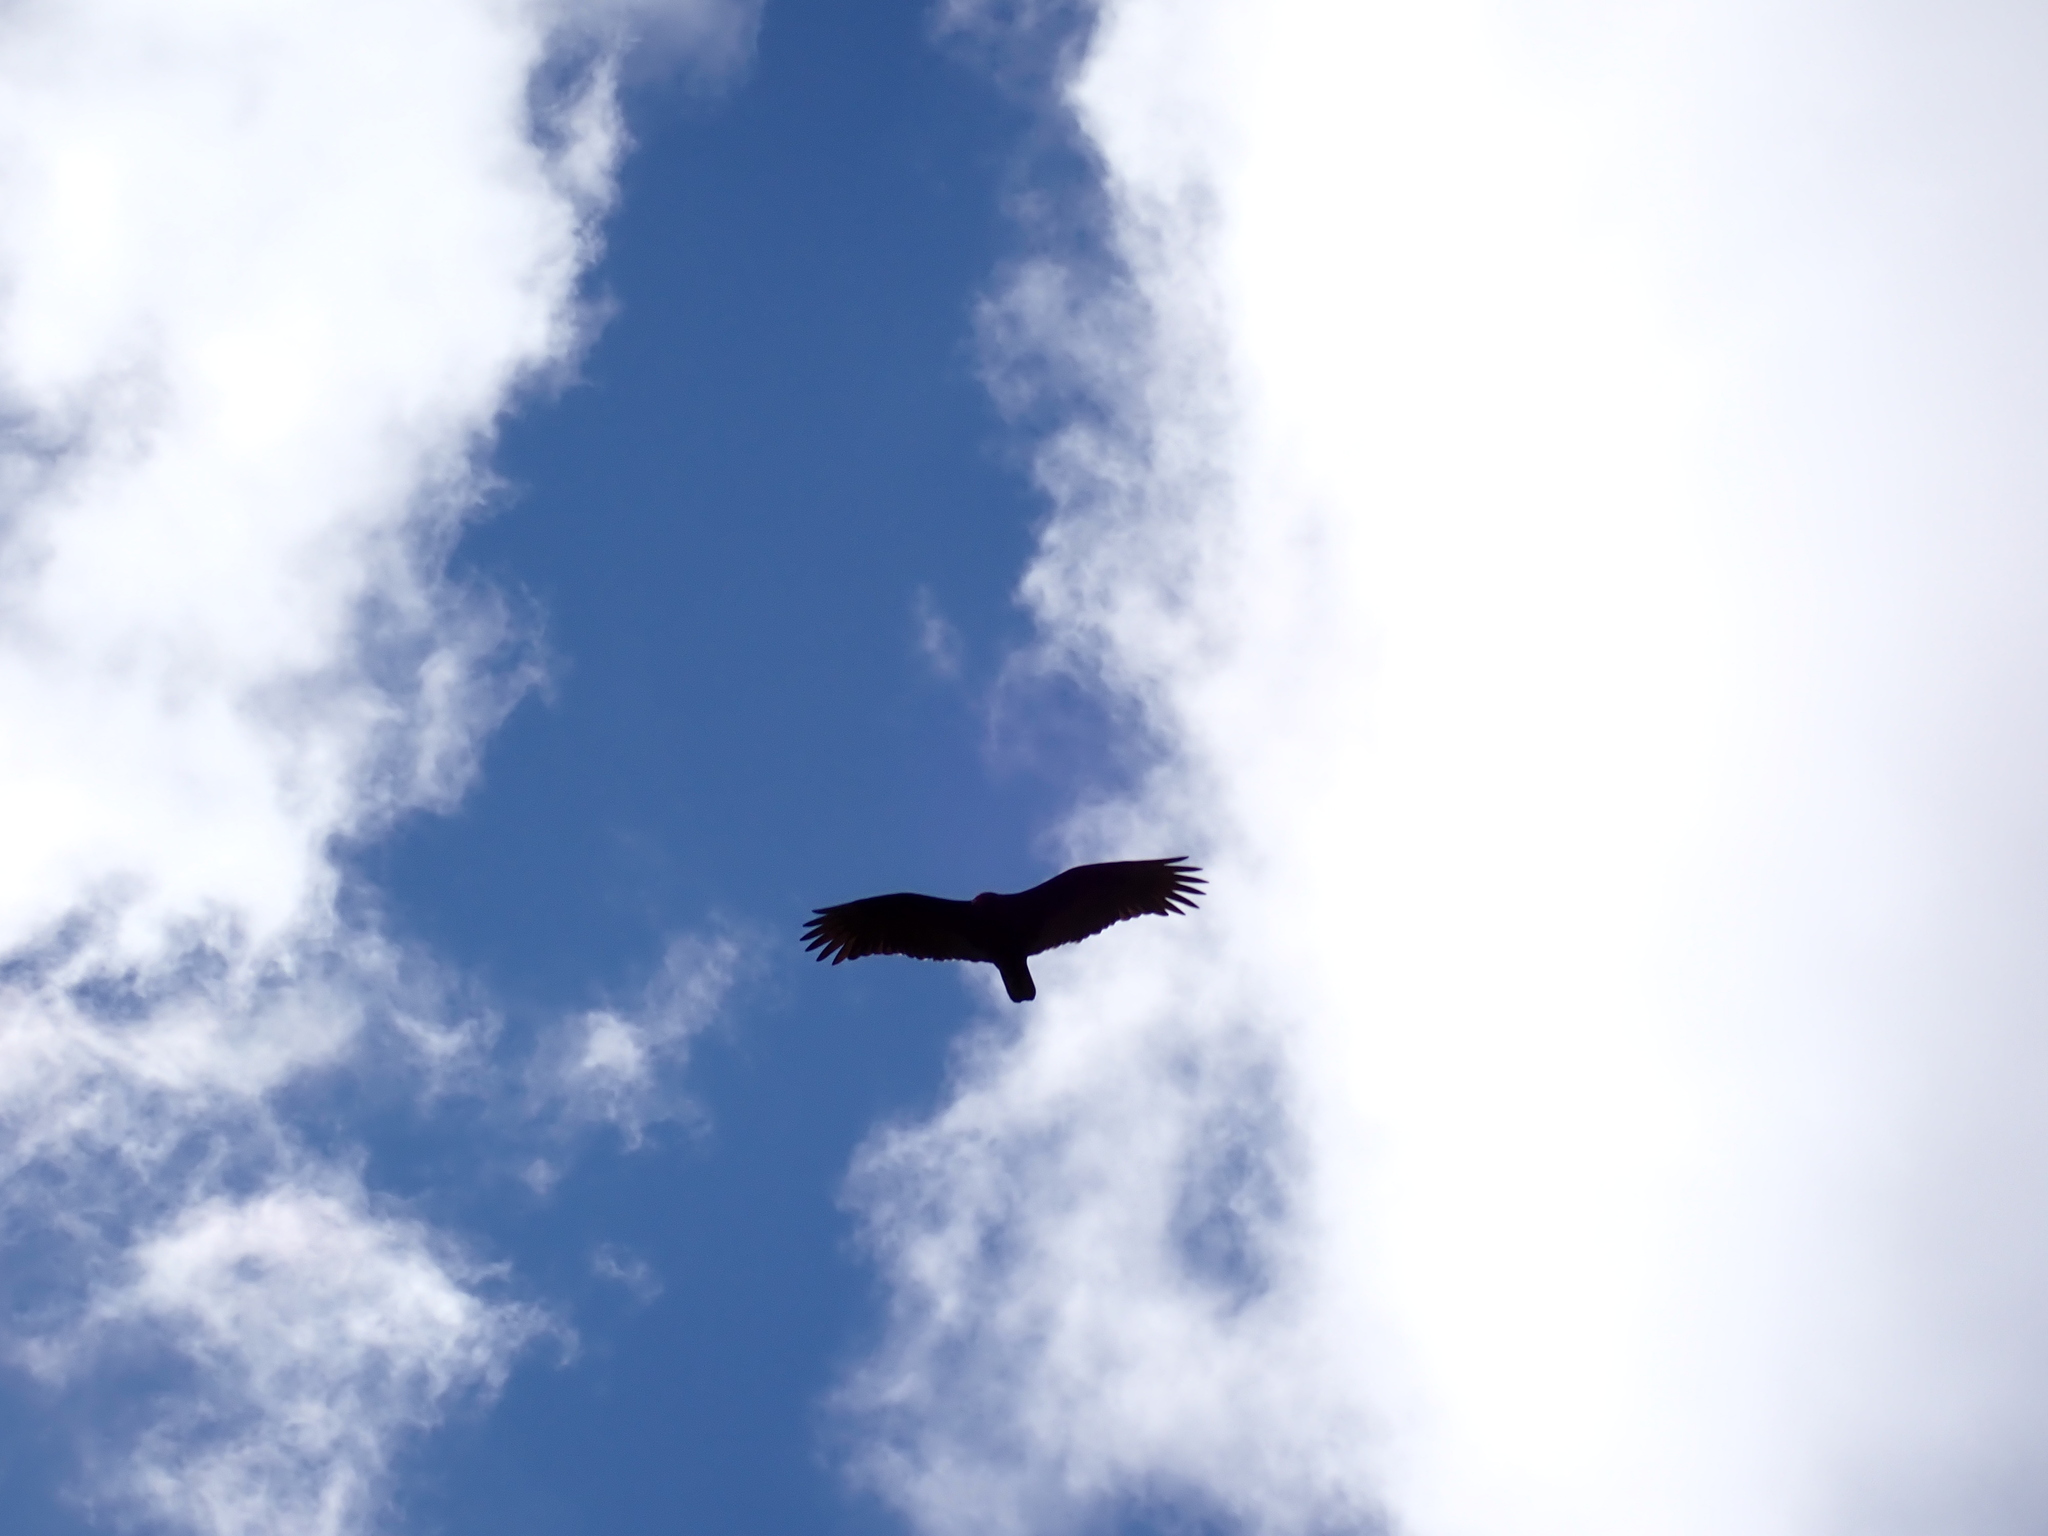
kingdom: Animalia
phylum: Chordata
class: Aves
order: Accipitriformes
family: Cathartidae
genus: Cathartes
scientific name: Cathartes aura
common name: Turkey vulture
